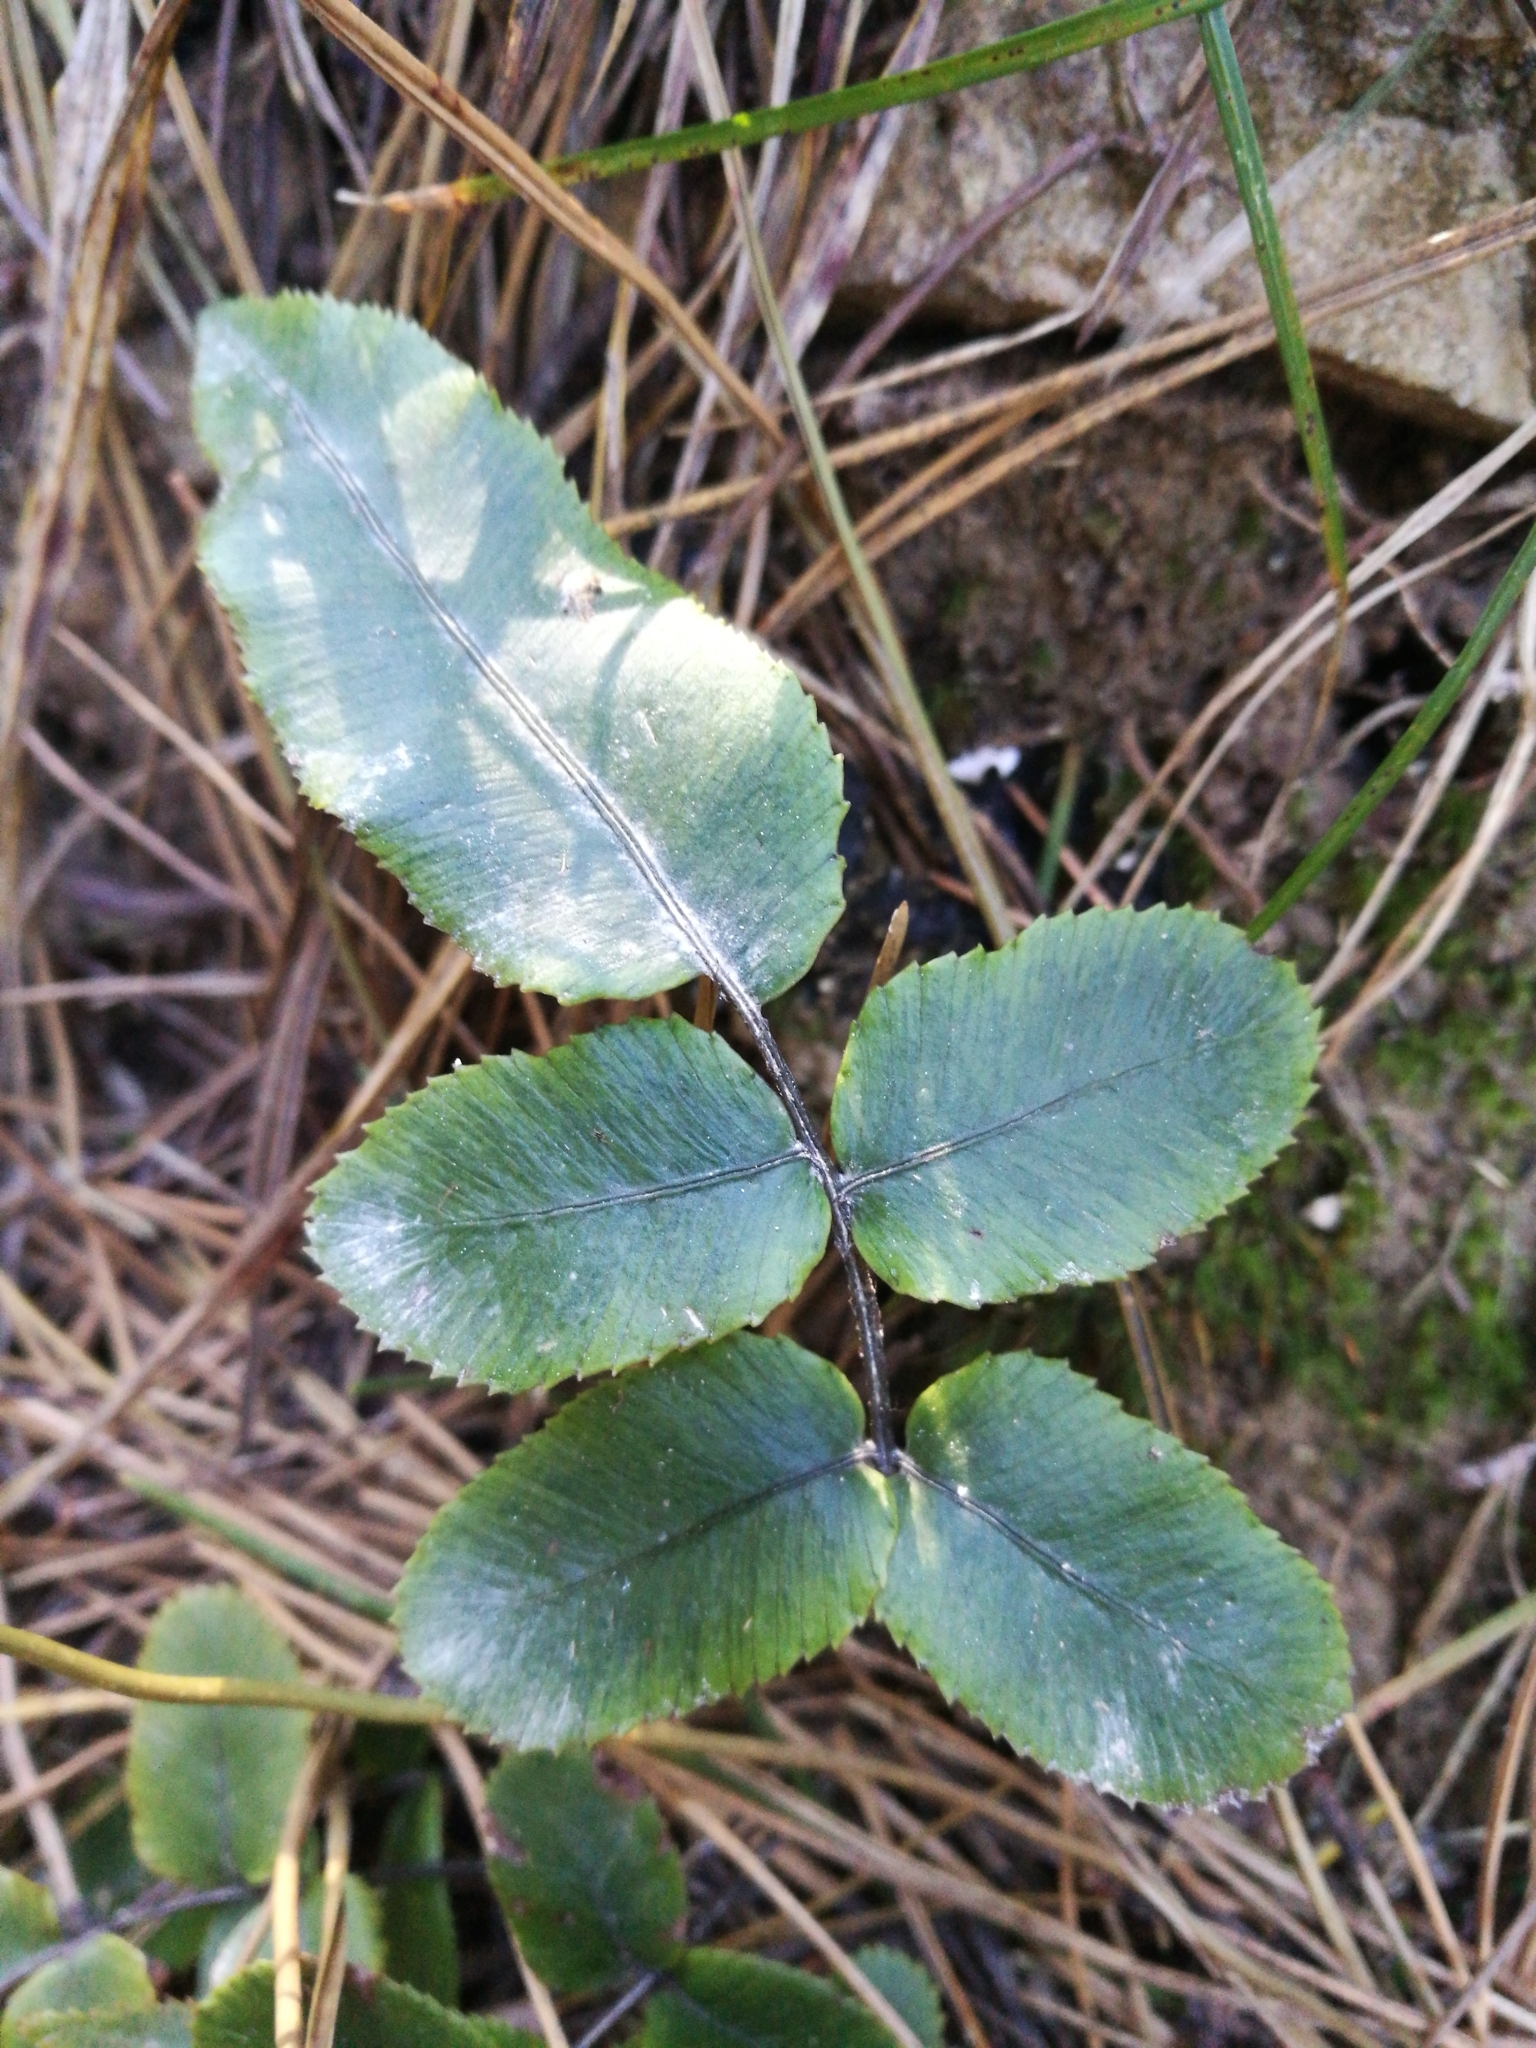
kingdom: Plantae
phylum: Tracheophyta
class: Polypodiopsida
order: Polypodiales
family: Blechnaceae
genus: Parablechnum
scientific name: Parablechnum procerum
